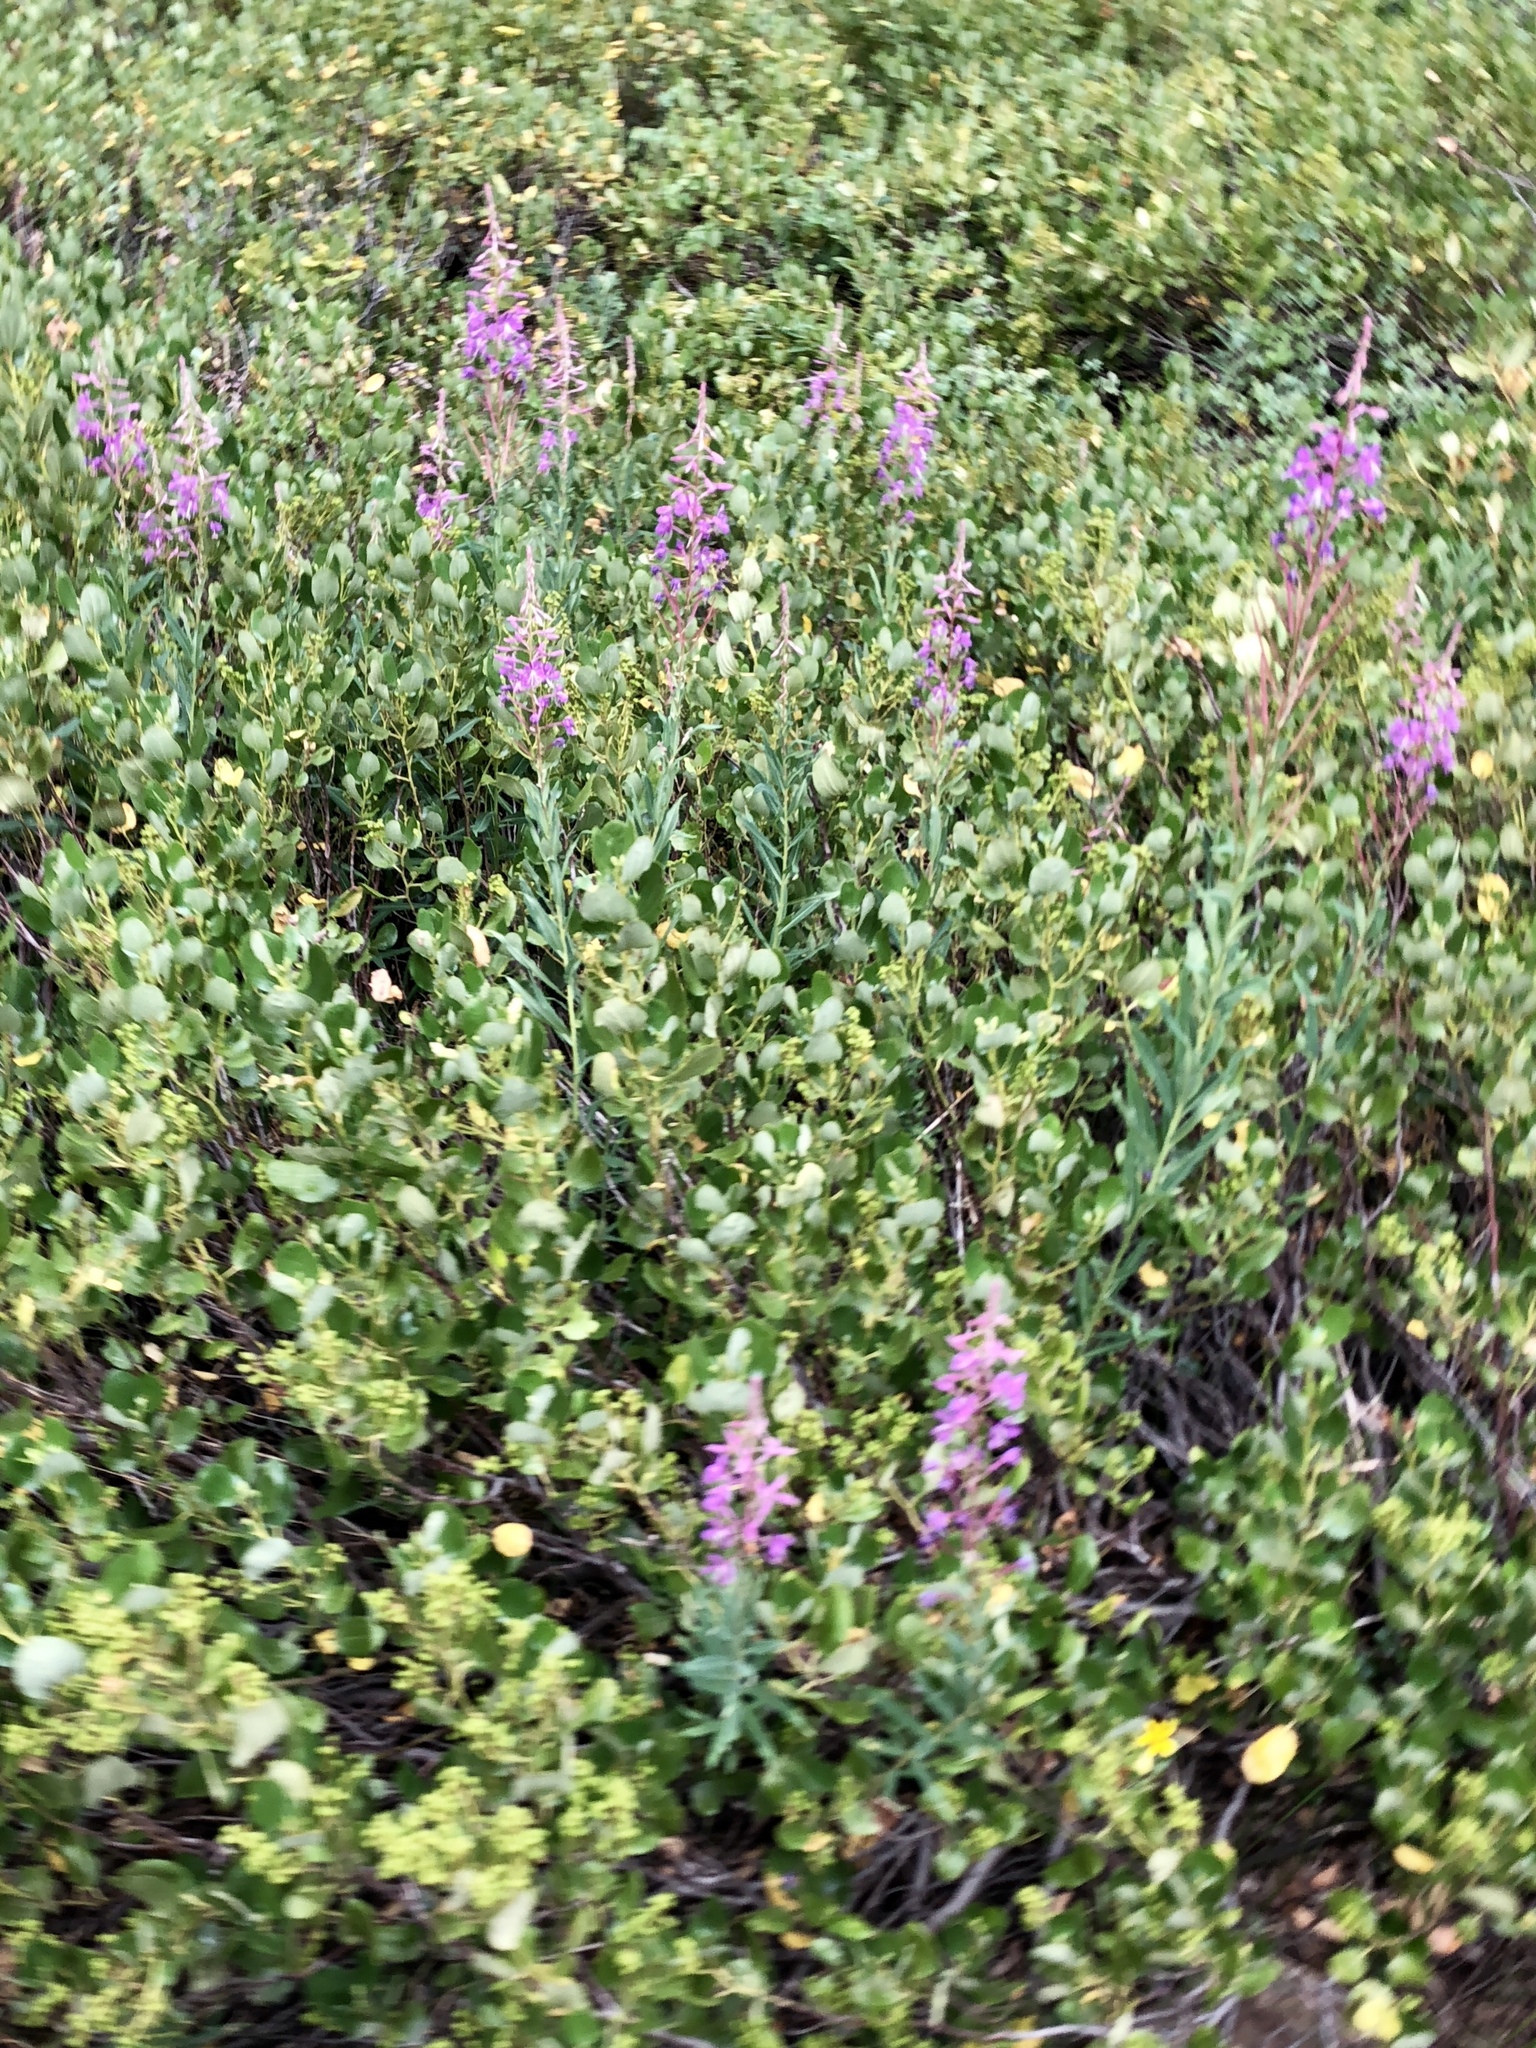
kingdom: Plantae
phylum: Tracheophyta
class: Magnoliopsida
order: Myrtales
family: Onagraceae
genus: Chamaenerion
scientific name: Chamaenerion angustifolium
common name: Fireweed
